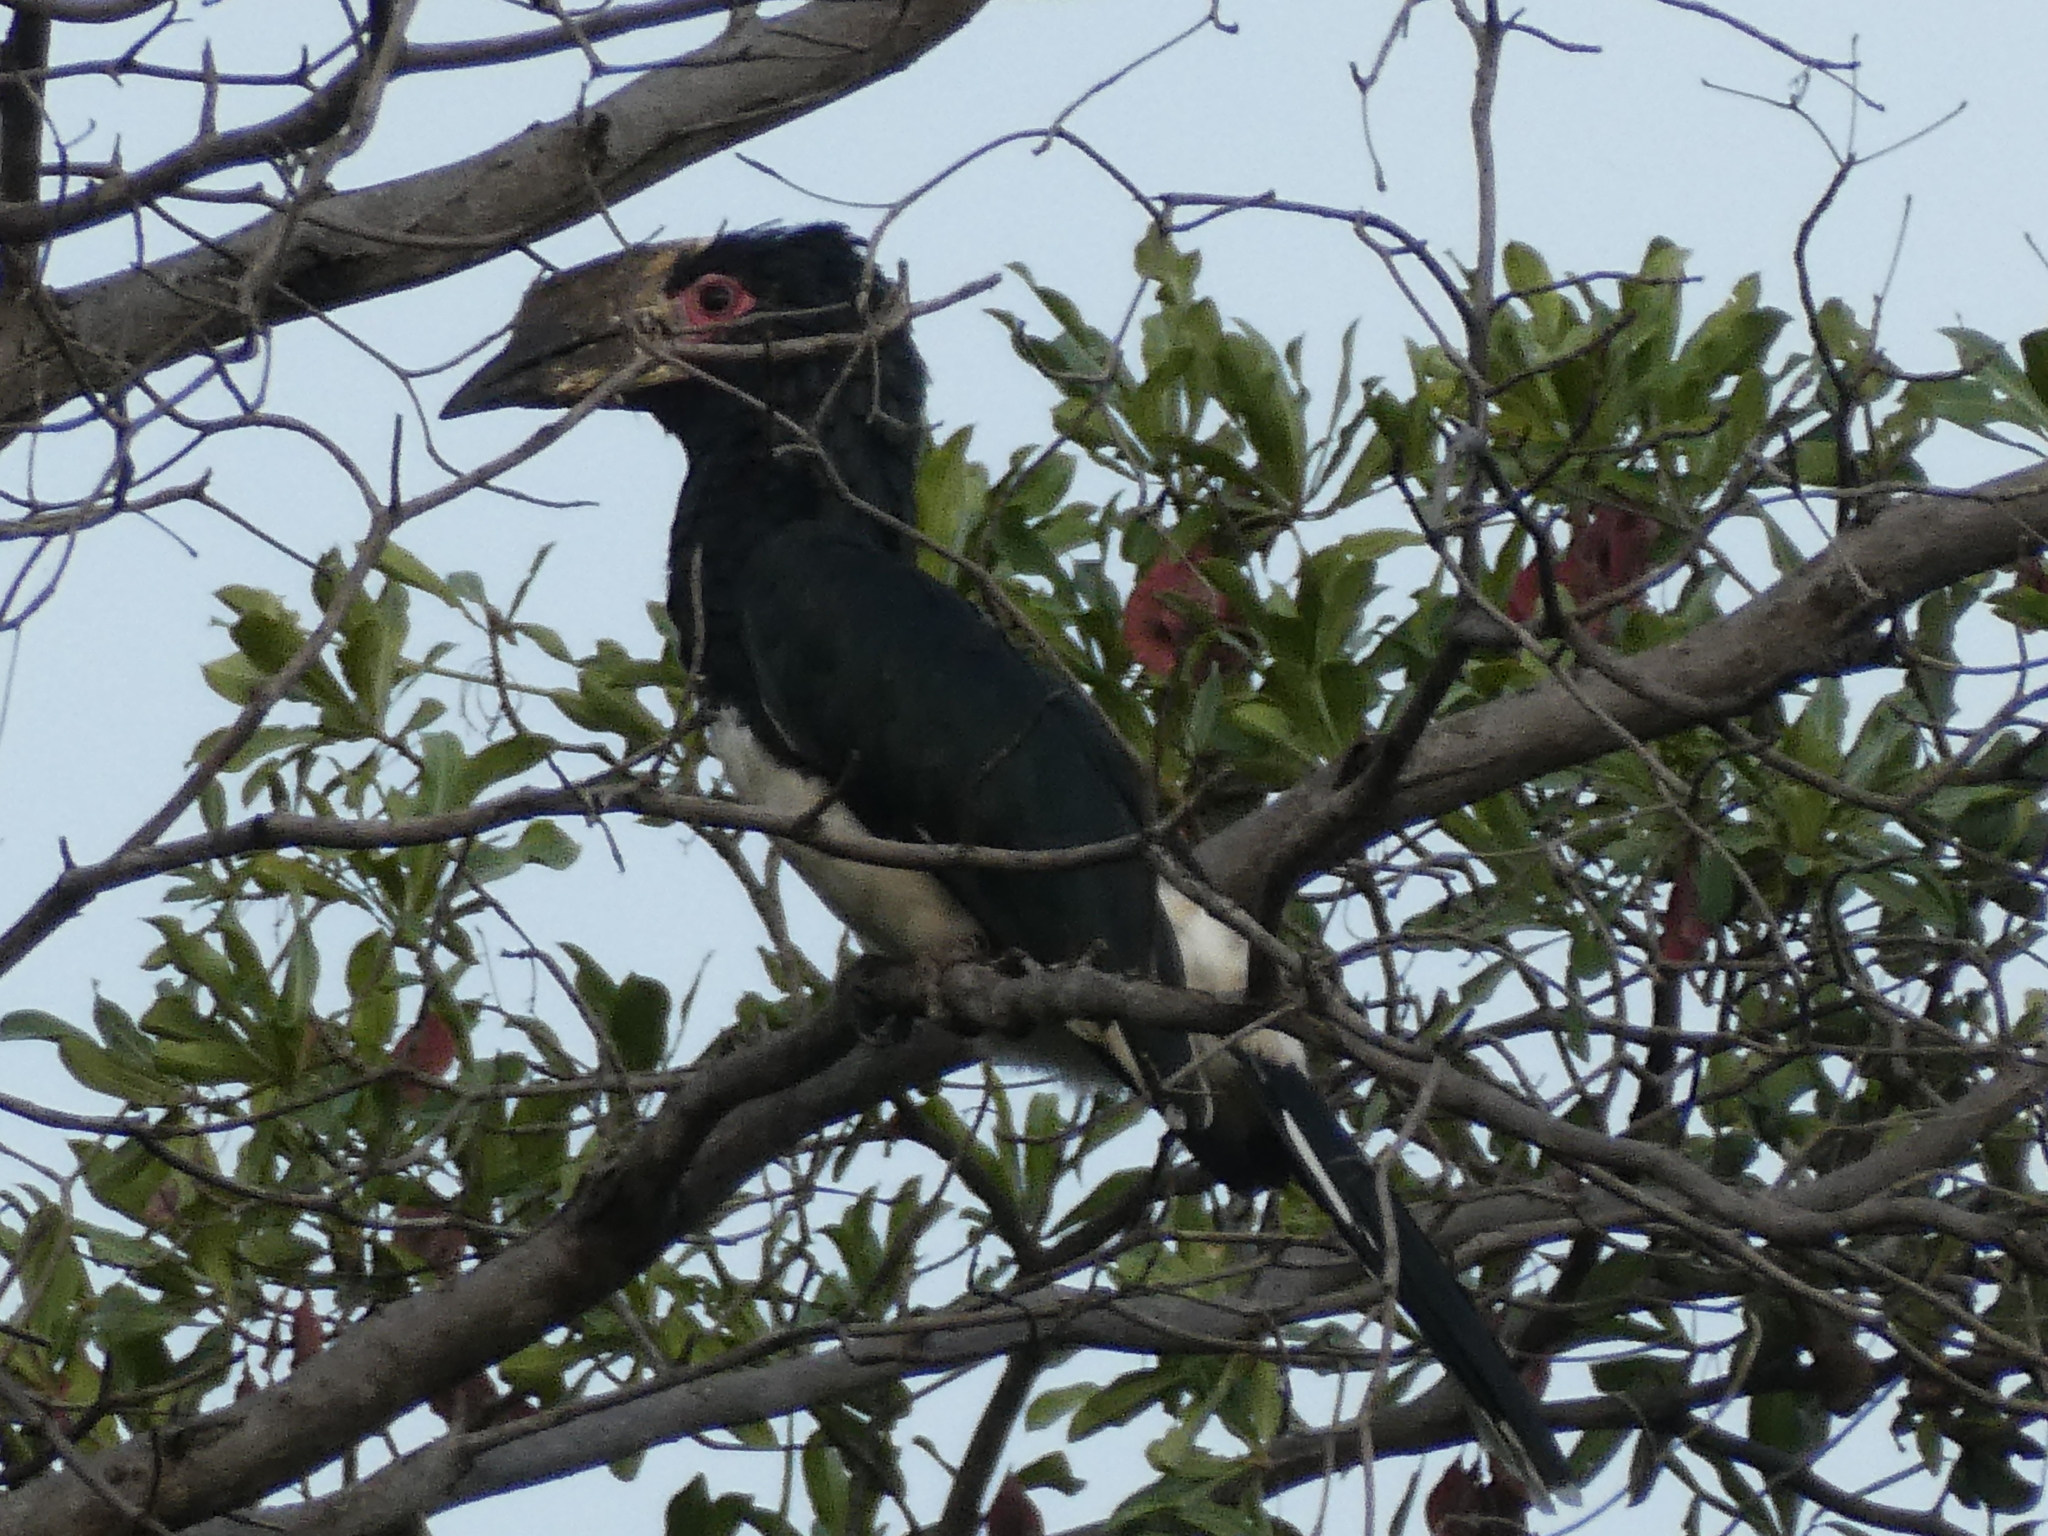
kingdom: Animalia
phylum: Chordata
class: Aves
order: Bucerotiformes
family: Bucerotidae
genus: Bycanistes
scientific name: Bycanistes bucinator
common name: Trumpeter hornbill
